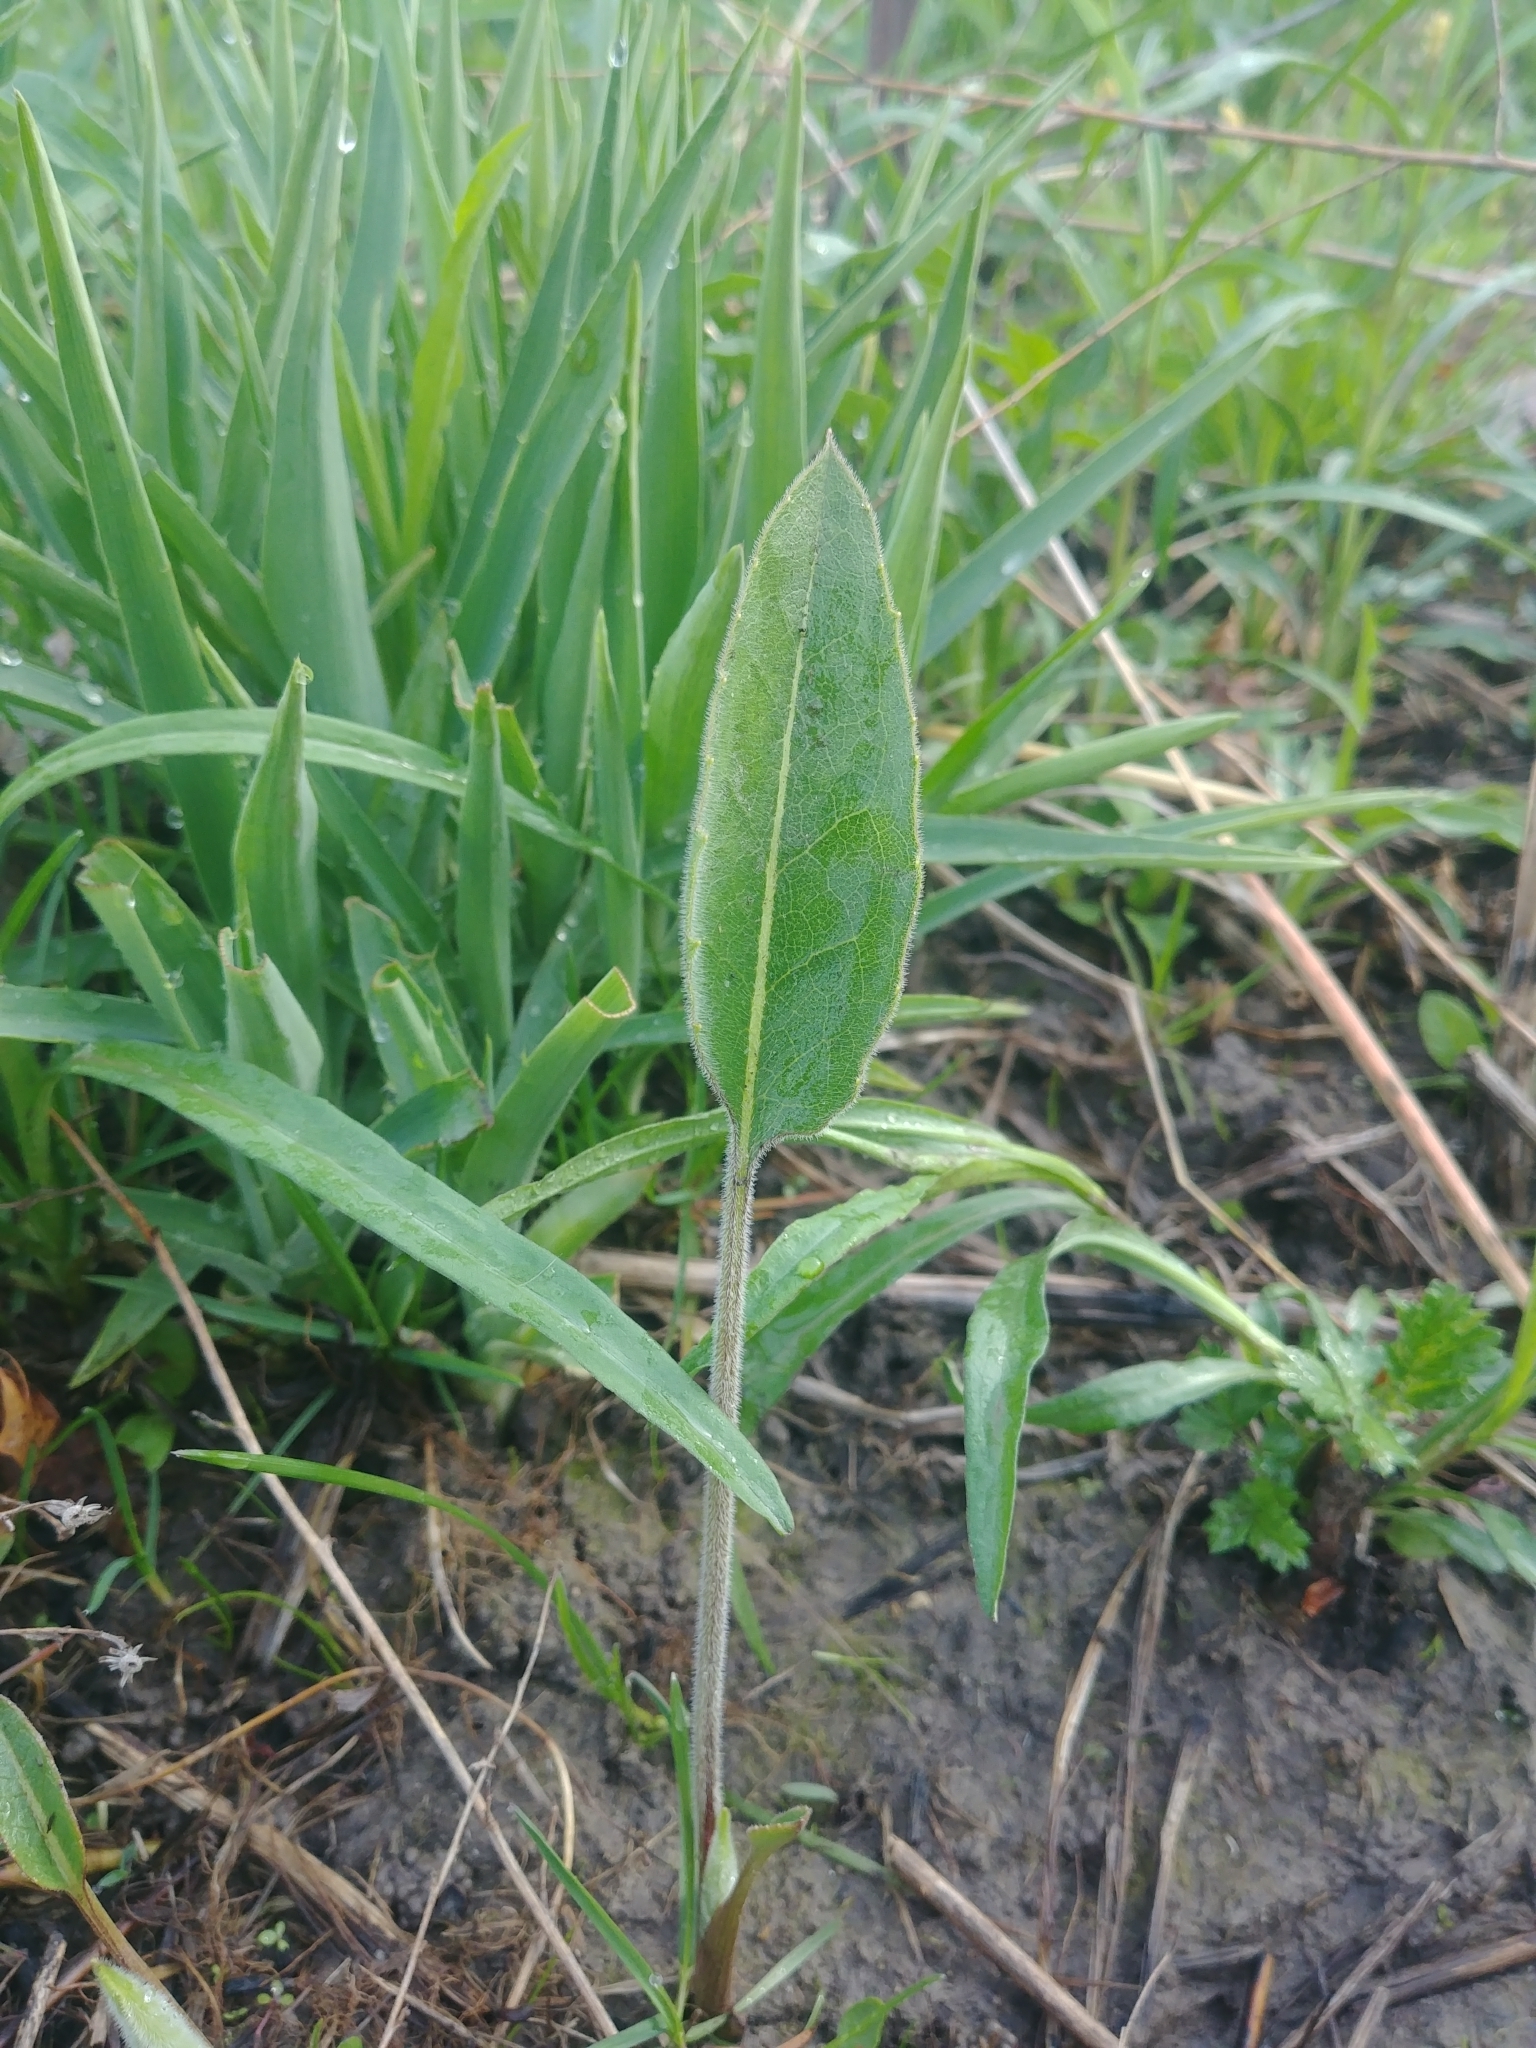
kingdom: Plantae
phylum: Tracheophyta
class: Magnoliopsida
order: Asterales
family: Asteraceae
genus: Silphium
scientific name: Silphium terebinthinaceum
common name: Basal-leaf rosinweed
